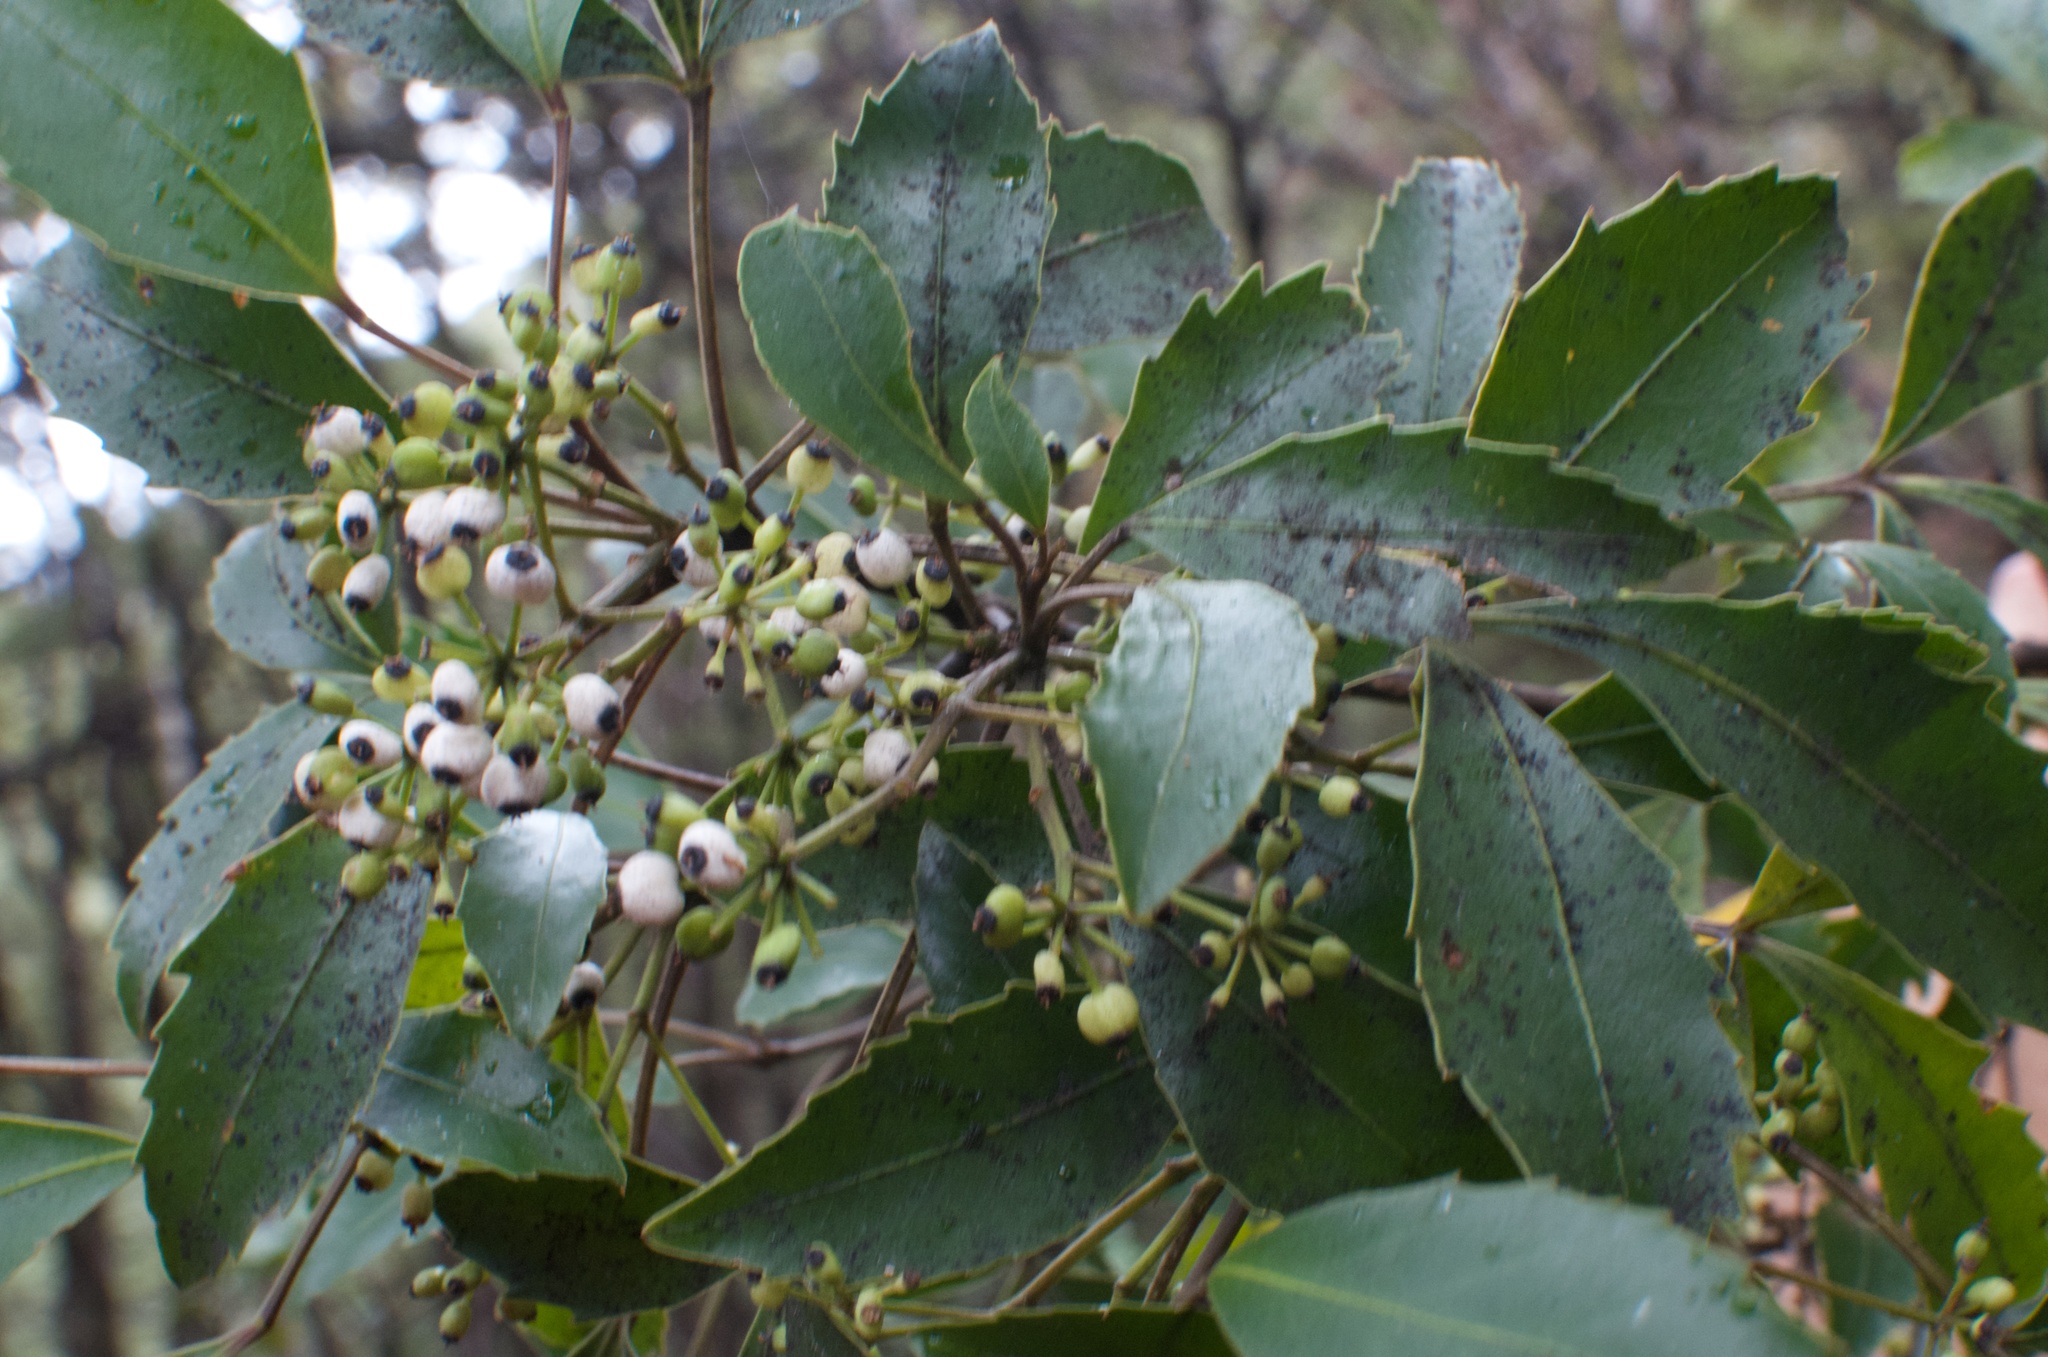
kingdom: Plantae
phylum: Tracheophyta
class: Magnoliopsida
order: Apiales
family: Araliaceae
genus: Raukaua
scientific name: Raukaua simplex
